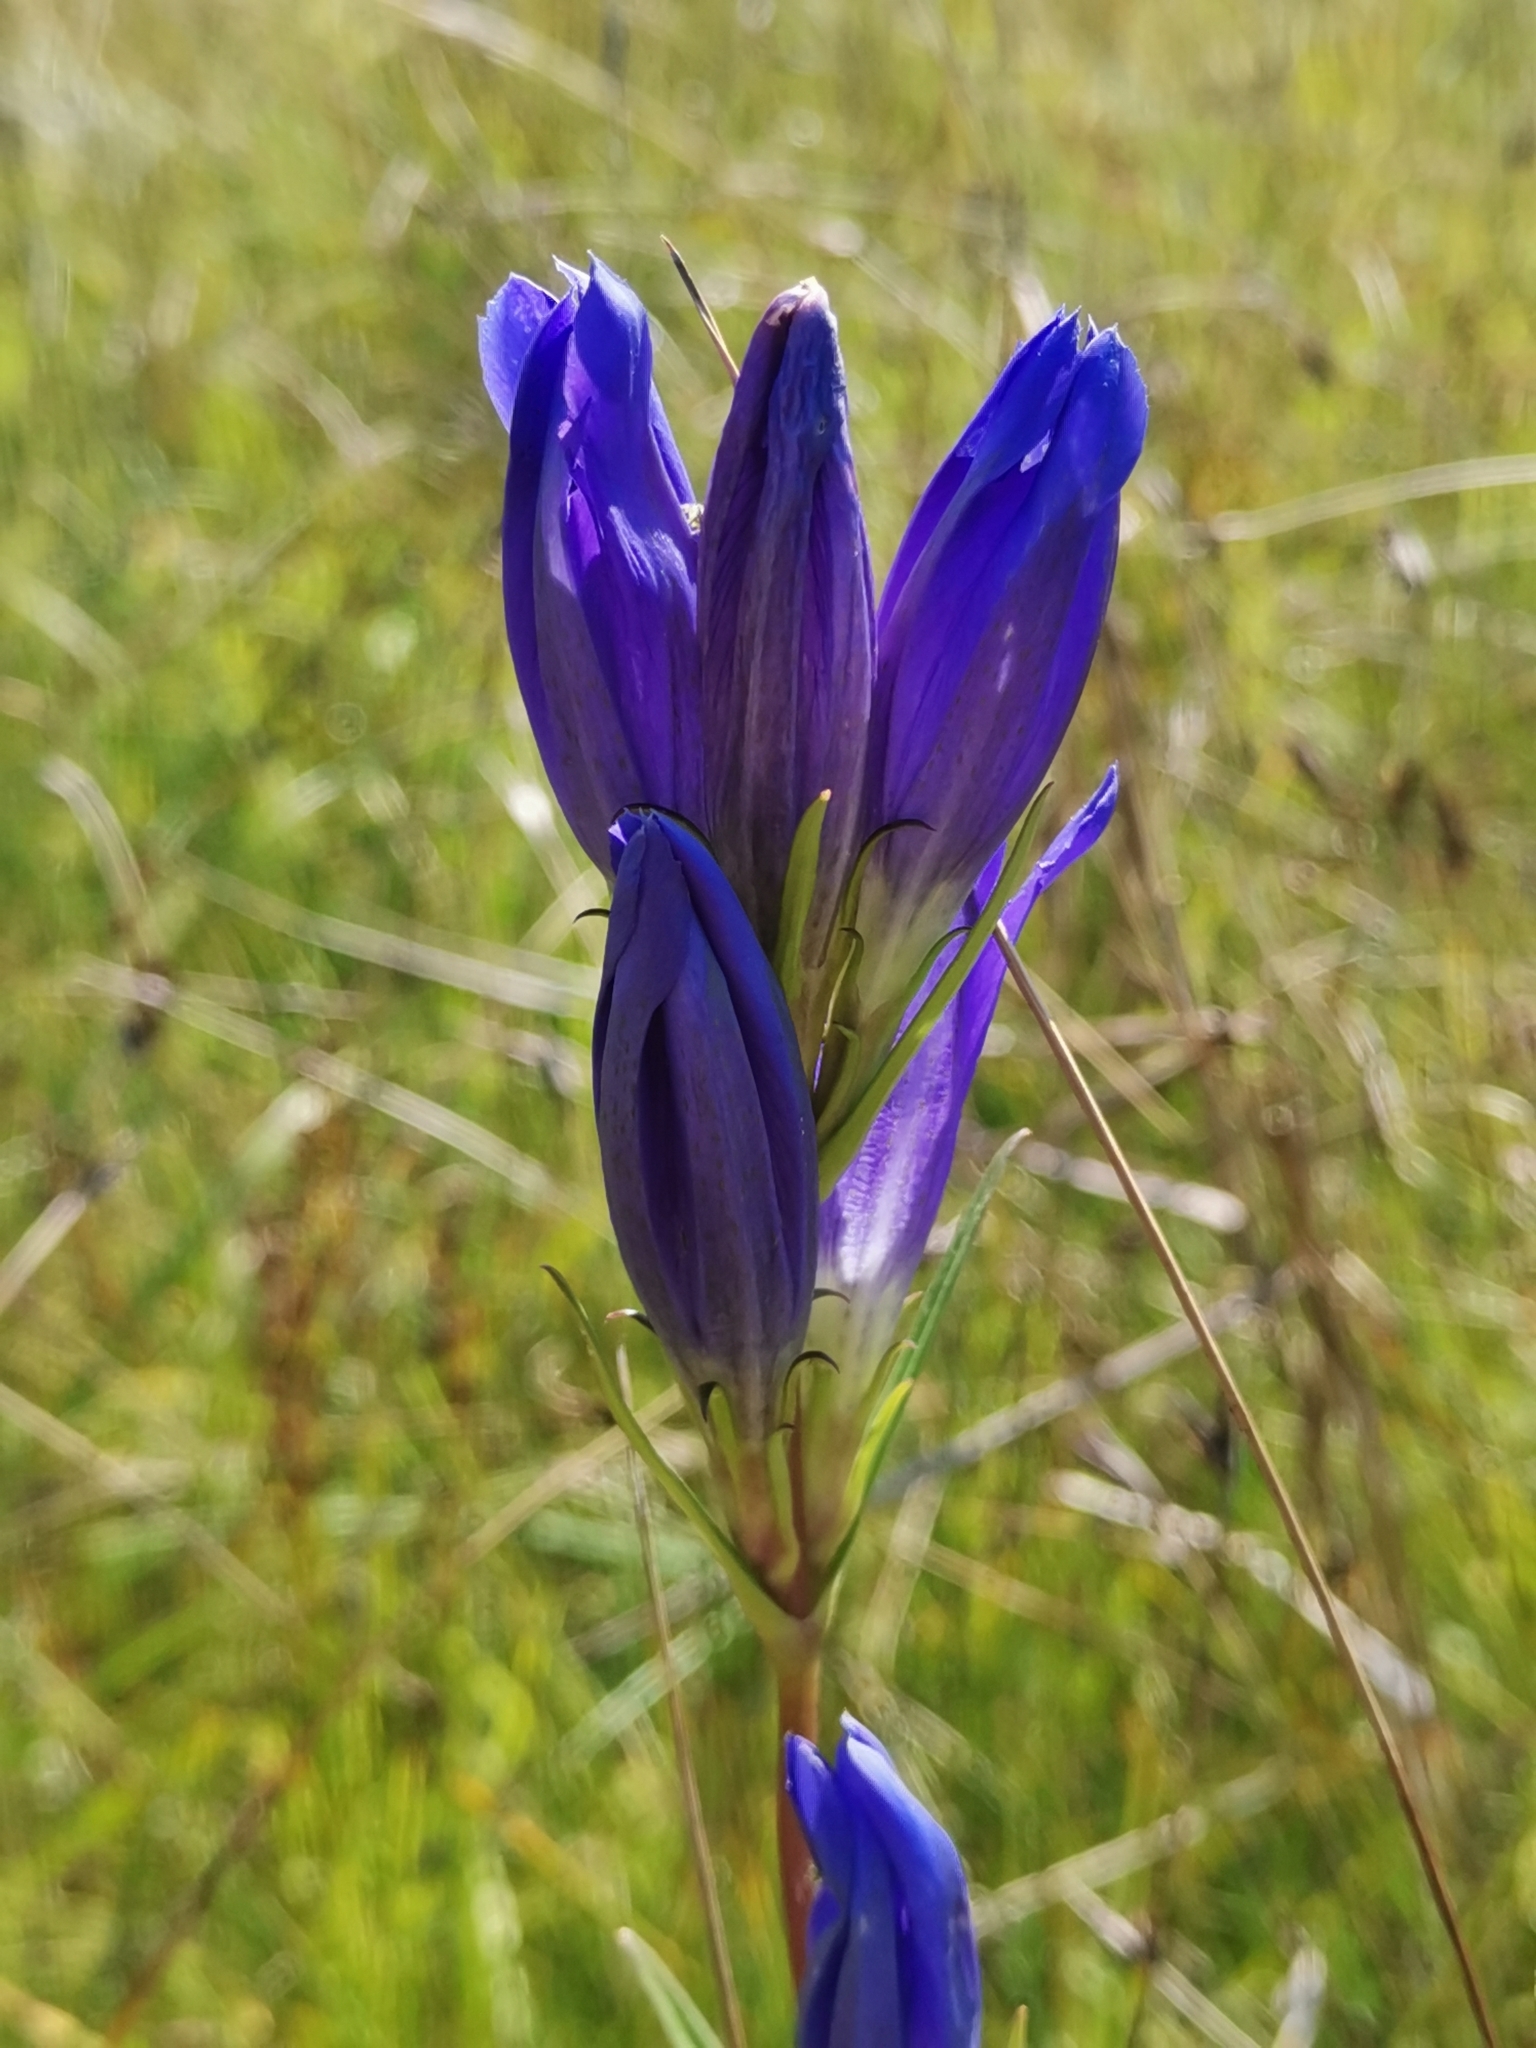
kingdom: Plantae
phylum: Tracheophyta
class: Magnoliopsida
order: Gentianales
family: Gentianaceae
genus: Gentiana
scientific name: Gentiana pneumonanthe
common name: Marsh gentian
